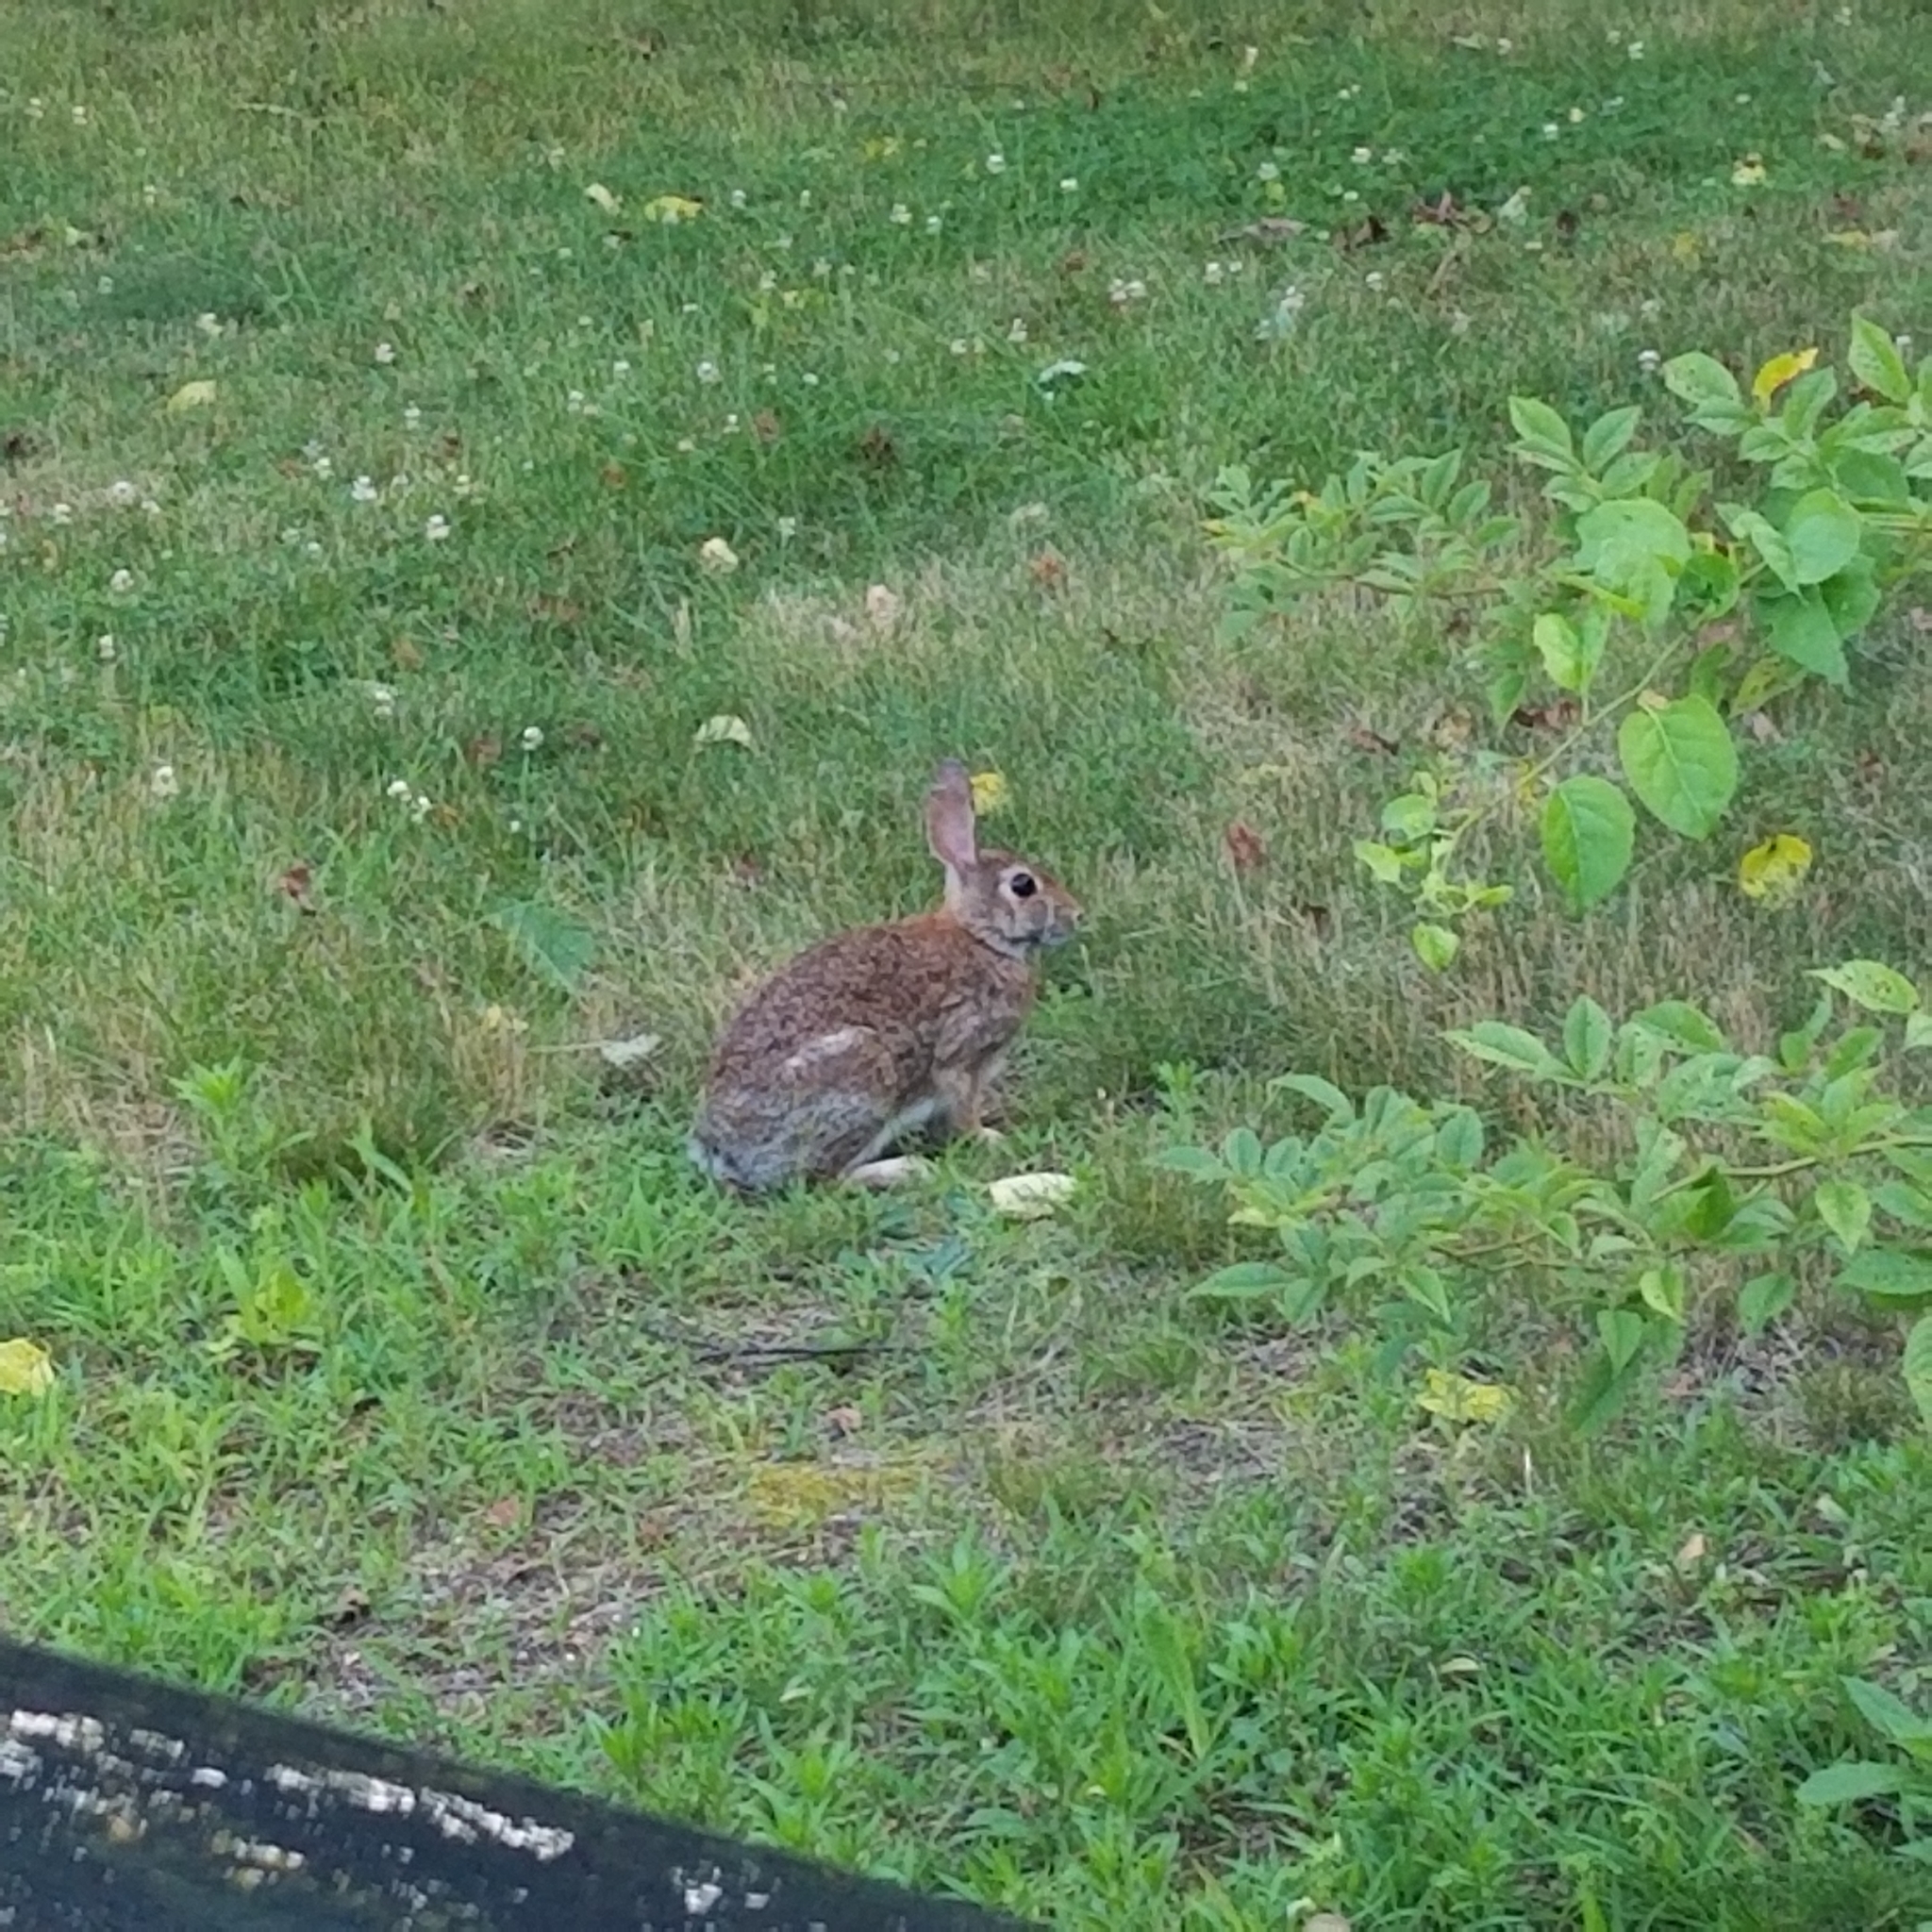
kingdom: Animalia
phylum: Chordata
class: Mammalia
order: Lagomorpha
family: Leporidae
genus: Sylvilagus
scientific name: Sylvilagus floridanus
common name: Eastern cottontail
